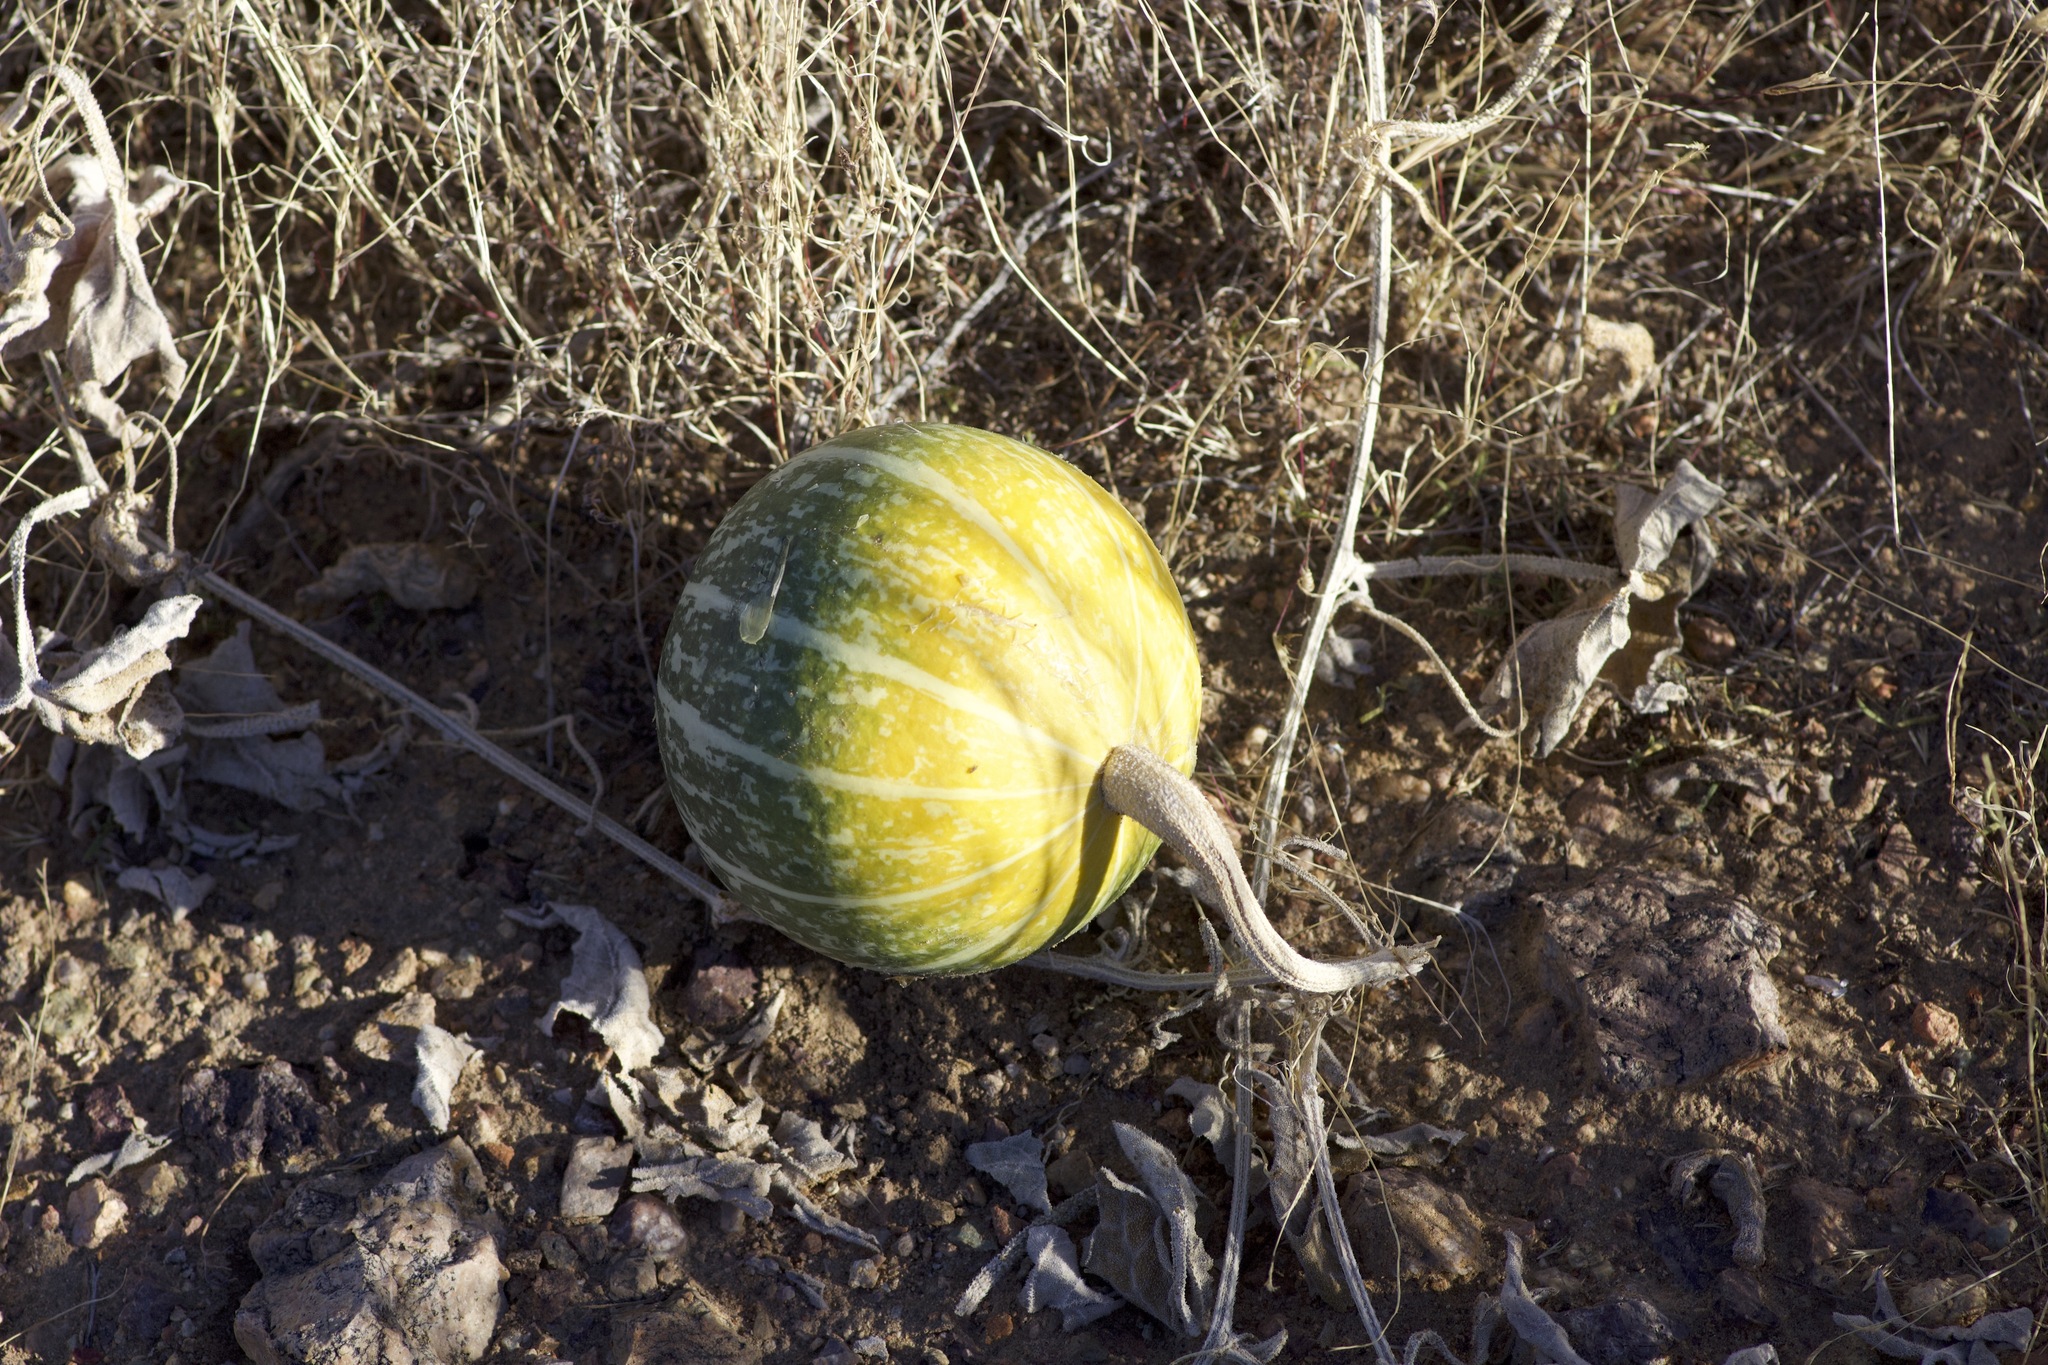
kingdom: Plantae
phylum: Tracheophyta
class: Magnoliopsida
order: Cucurbitales
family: Cucurbitaceae
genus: Cucurbita
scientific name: Cucurbita palmata
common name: Coyote-melon
